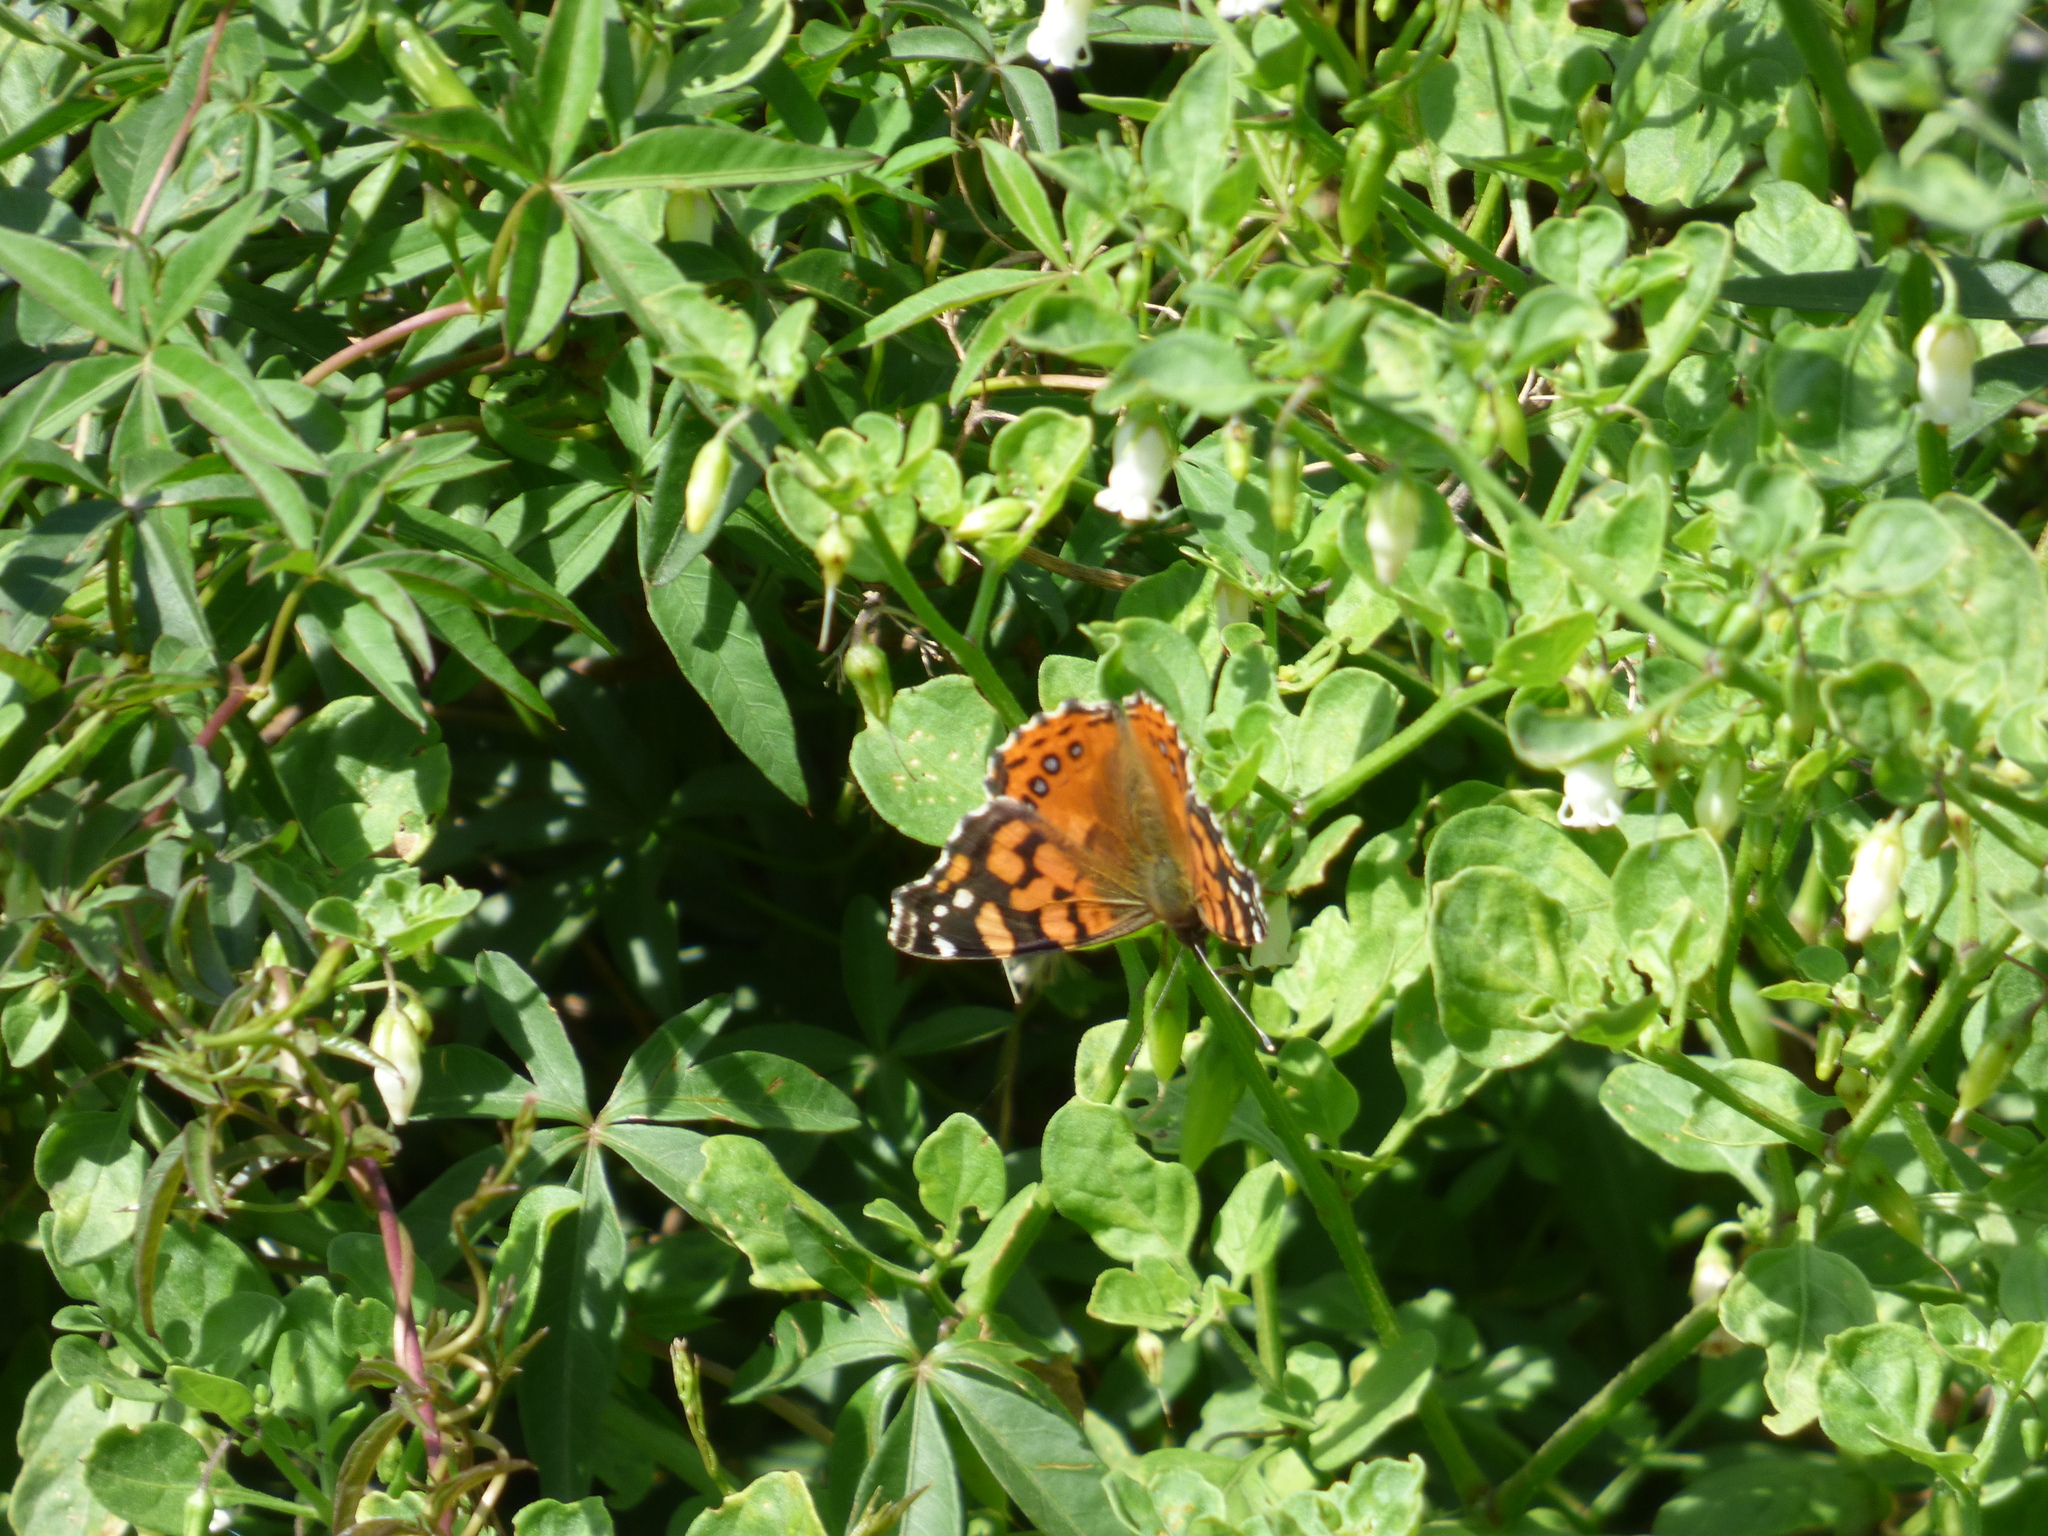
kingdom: Animalia
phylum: Arthropoda
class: Insecta
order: Lepidoptera
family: Nymphalidae
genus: Vanessa
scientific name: Vanessa carye
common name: Subtropical lady
